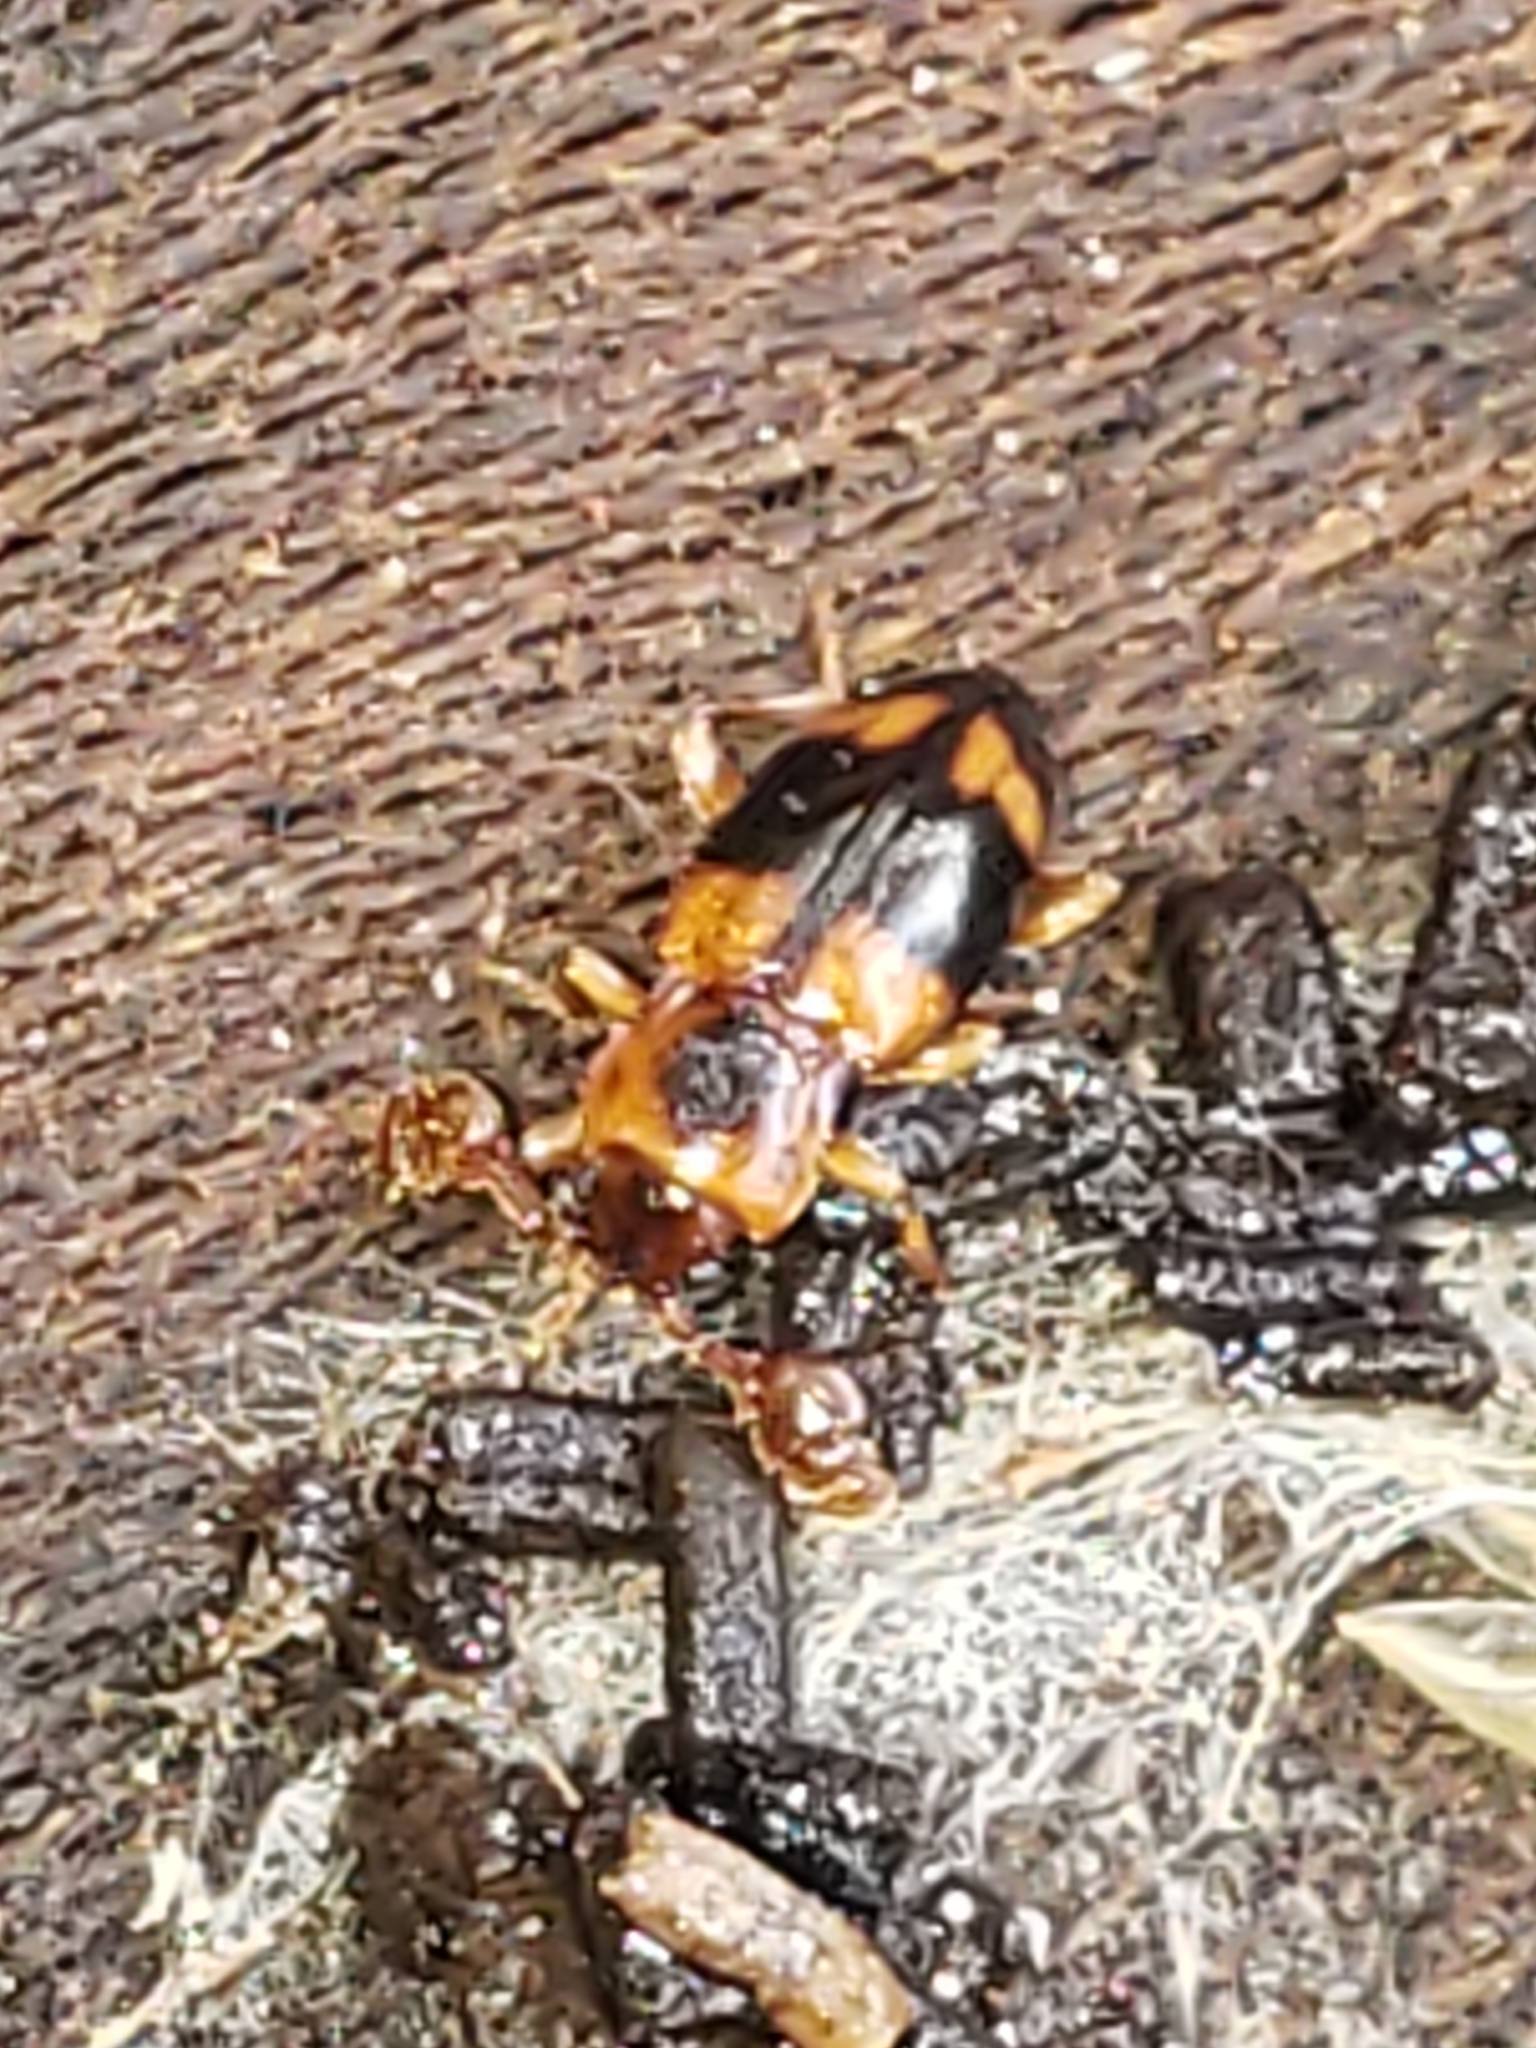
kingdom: Animalia
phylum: Arthropoda
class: Insecta
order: Coleoptera
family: Endomychidae
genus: Phymaphora
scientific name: Phymaphora pulchella
